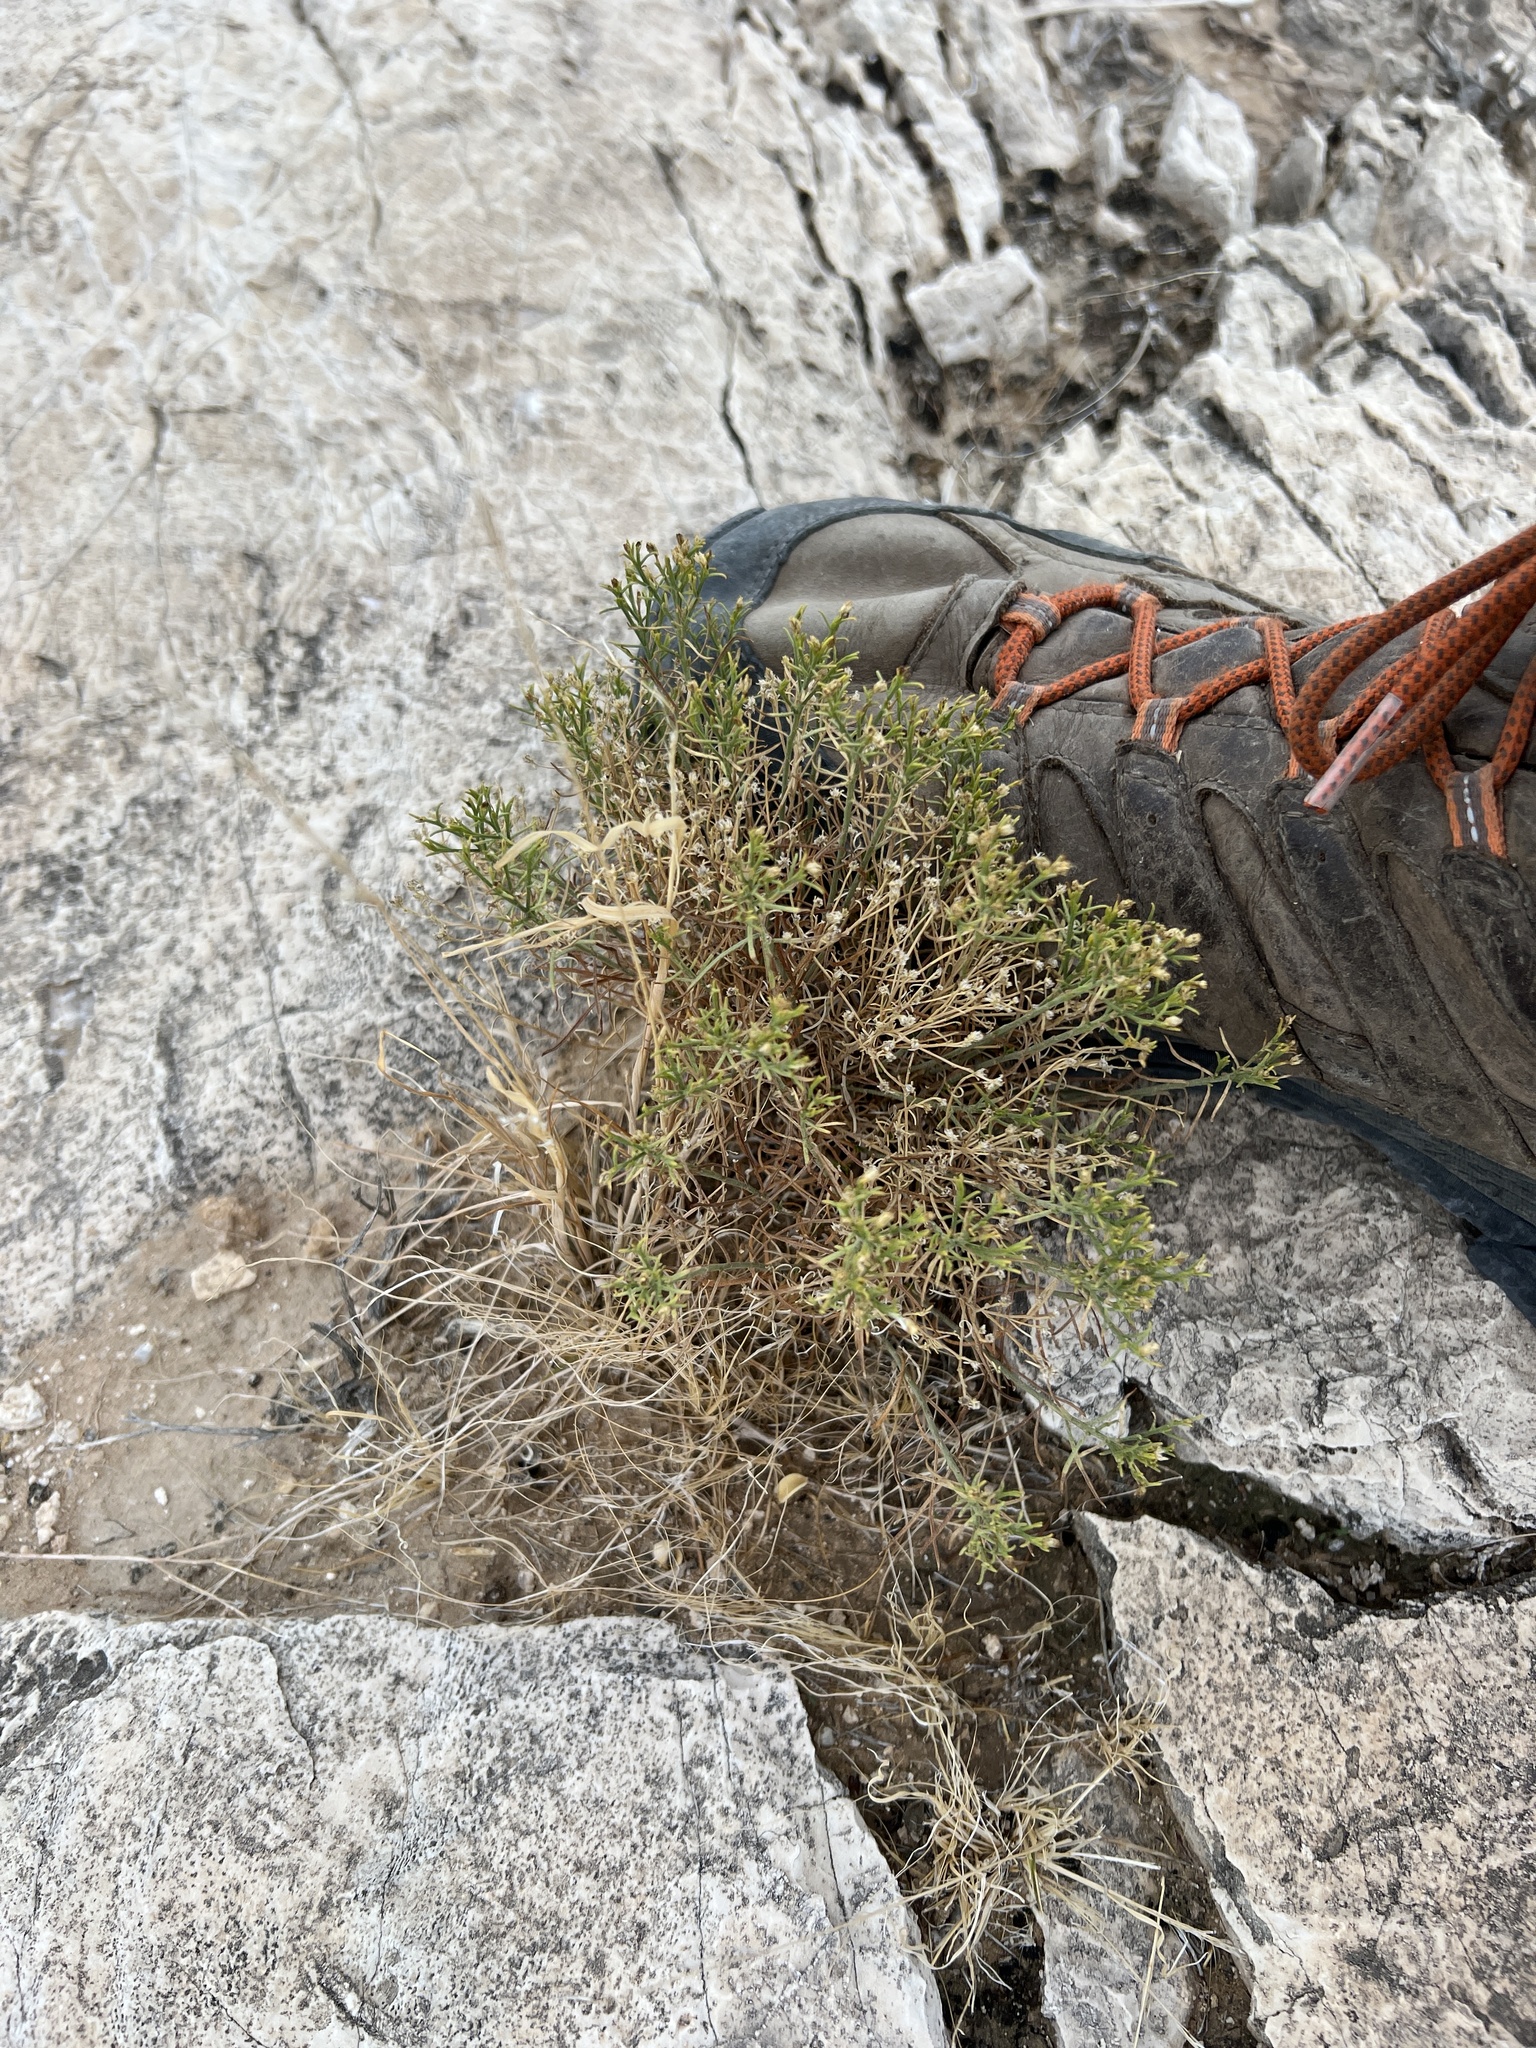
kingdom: Plantae
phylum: Tracheophyta
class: Magnoliopsida
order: Asterales
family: Asteraceae
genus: Ericameria
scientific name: Ericameria paniculata
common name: Punctate rabbitbrush
